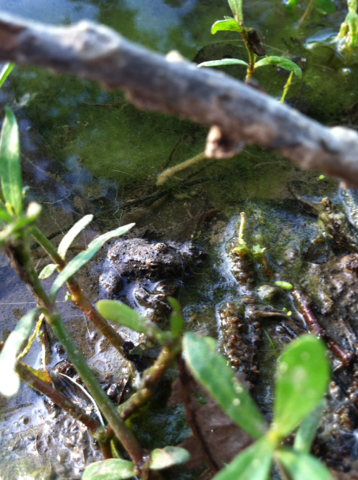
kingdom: Animalia
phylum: Chordata
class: Amphibia
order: Anura
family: Hylidae
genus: Acris
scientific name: Acris blanchardi
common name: Blanchard's cricket frog
